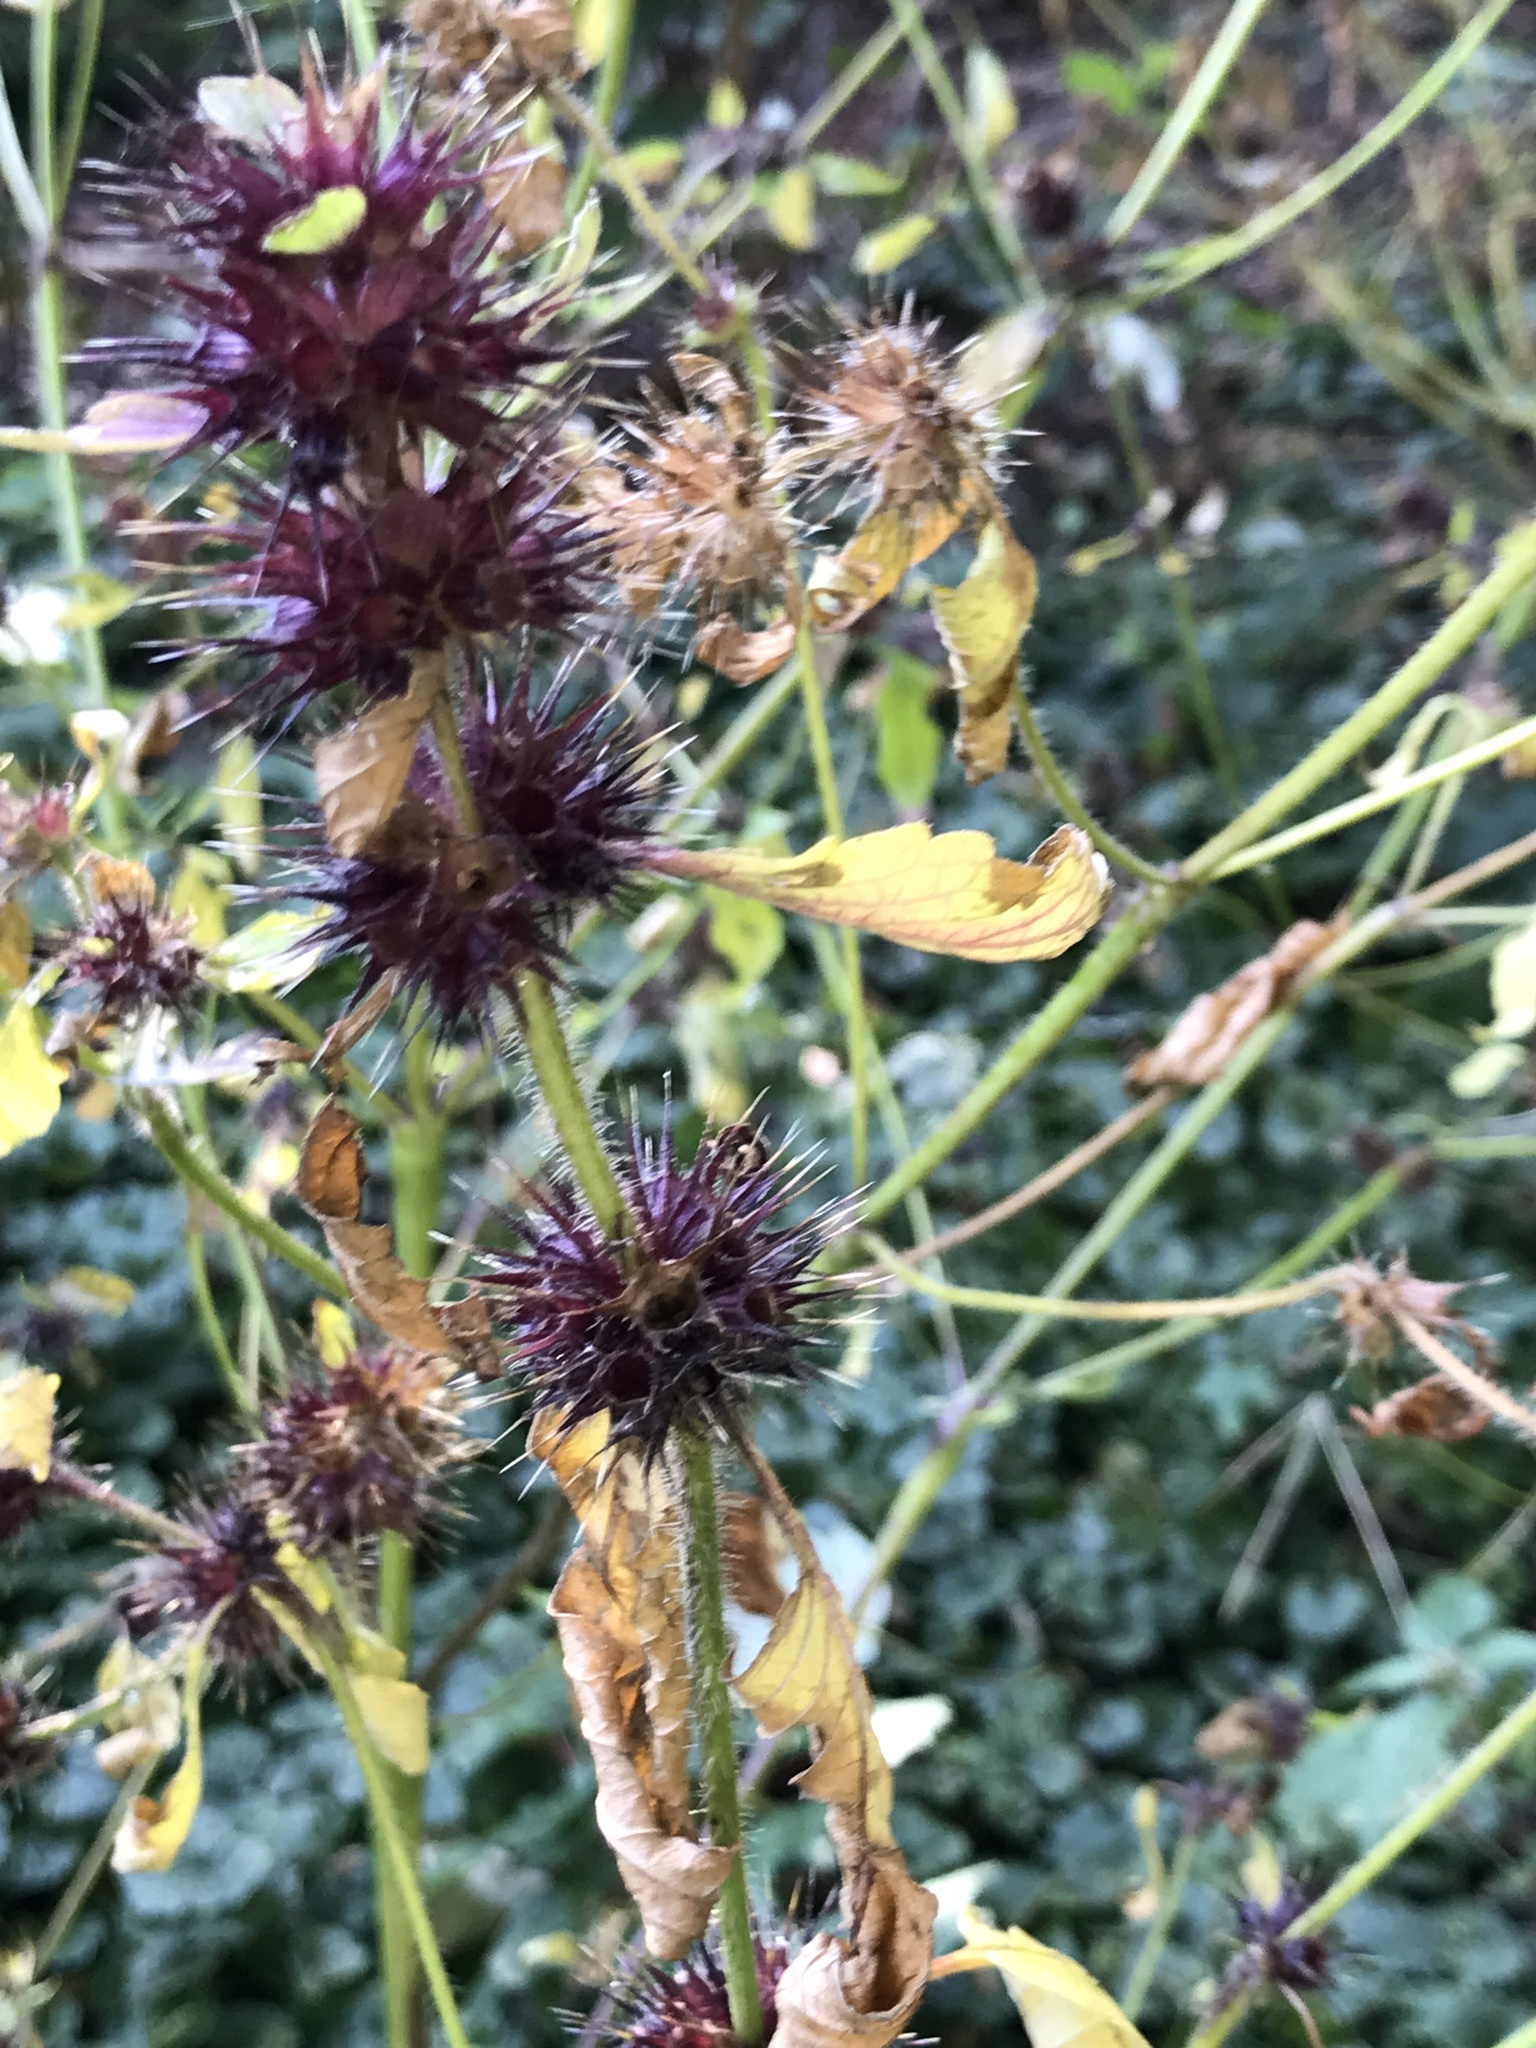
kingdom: Plantae
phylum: Tracheophyta
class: Magnoliopsida
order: Lamiales
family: Lamiaceae
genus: Galeopsis
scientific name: Galeopsis tetrahit
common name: Common hemp-nettle
